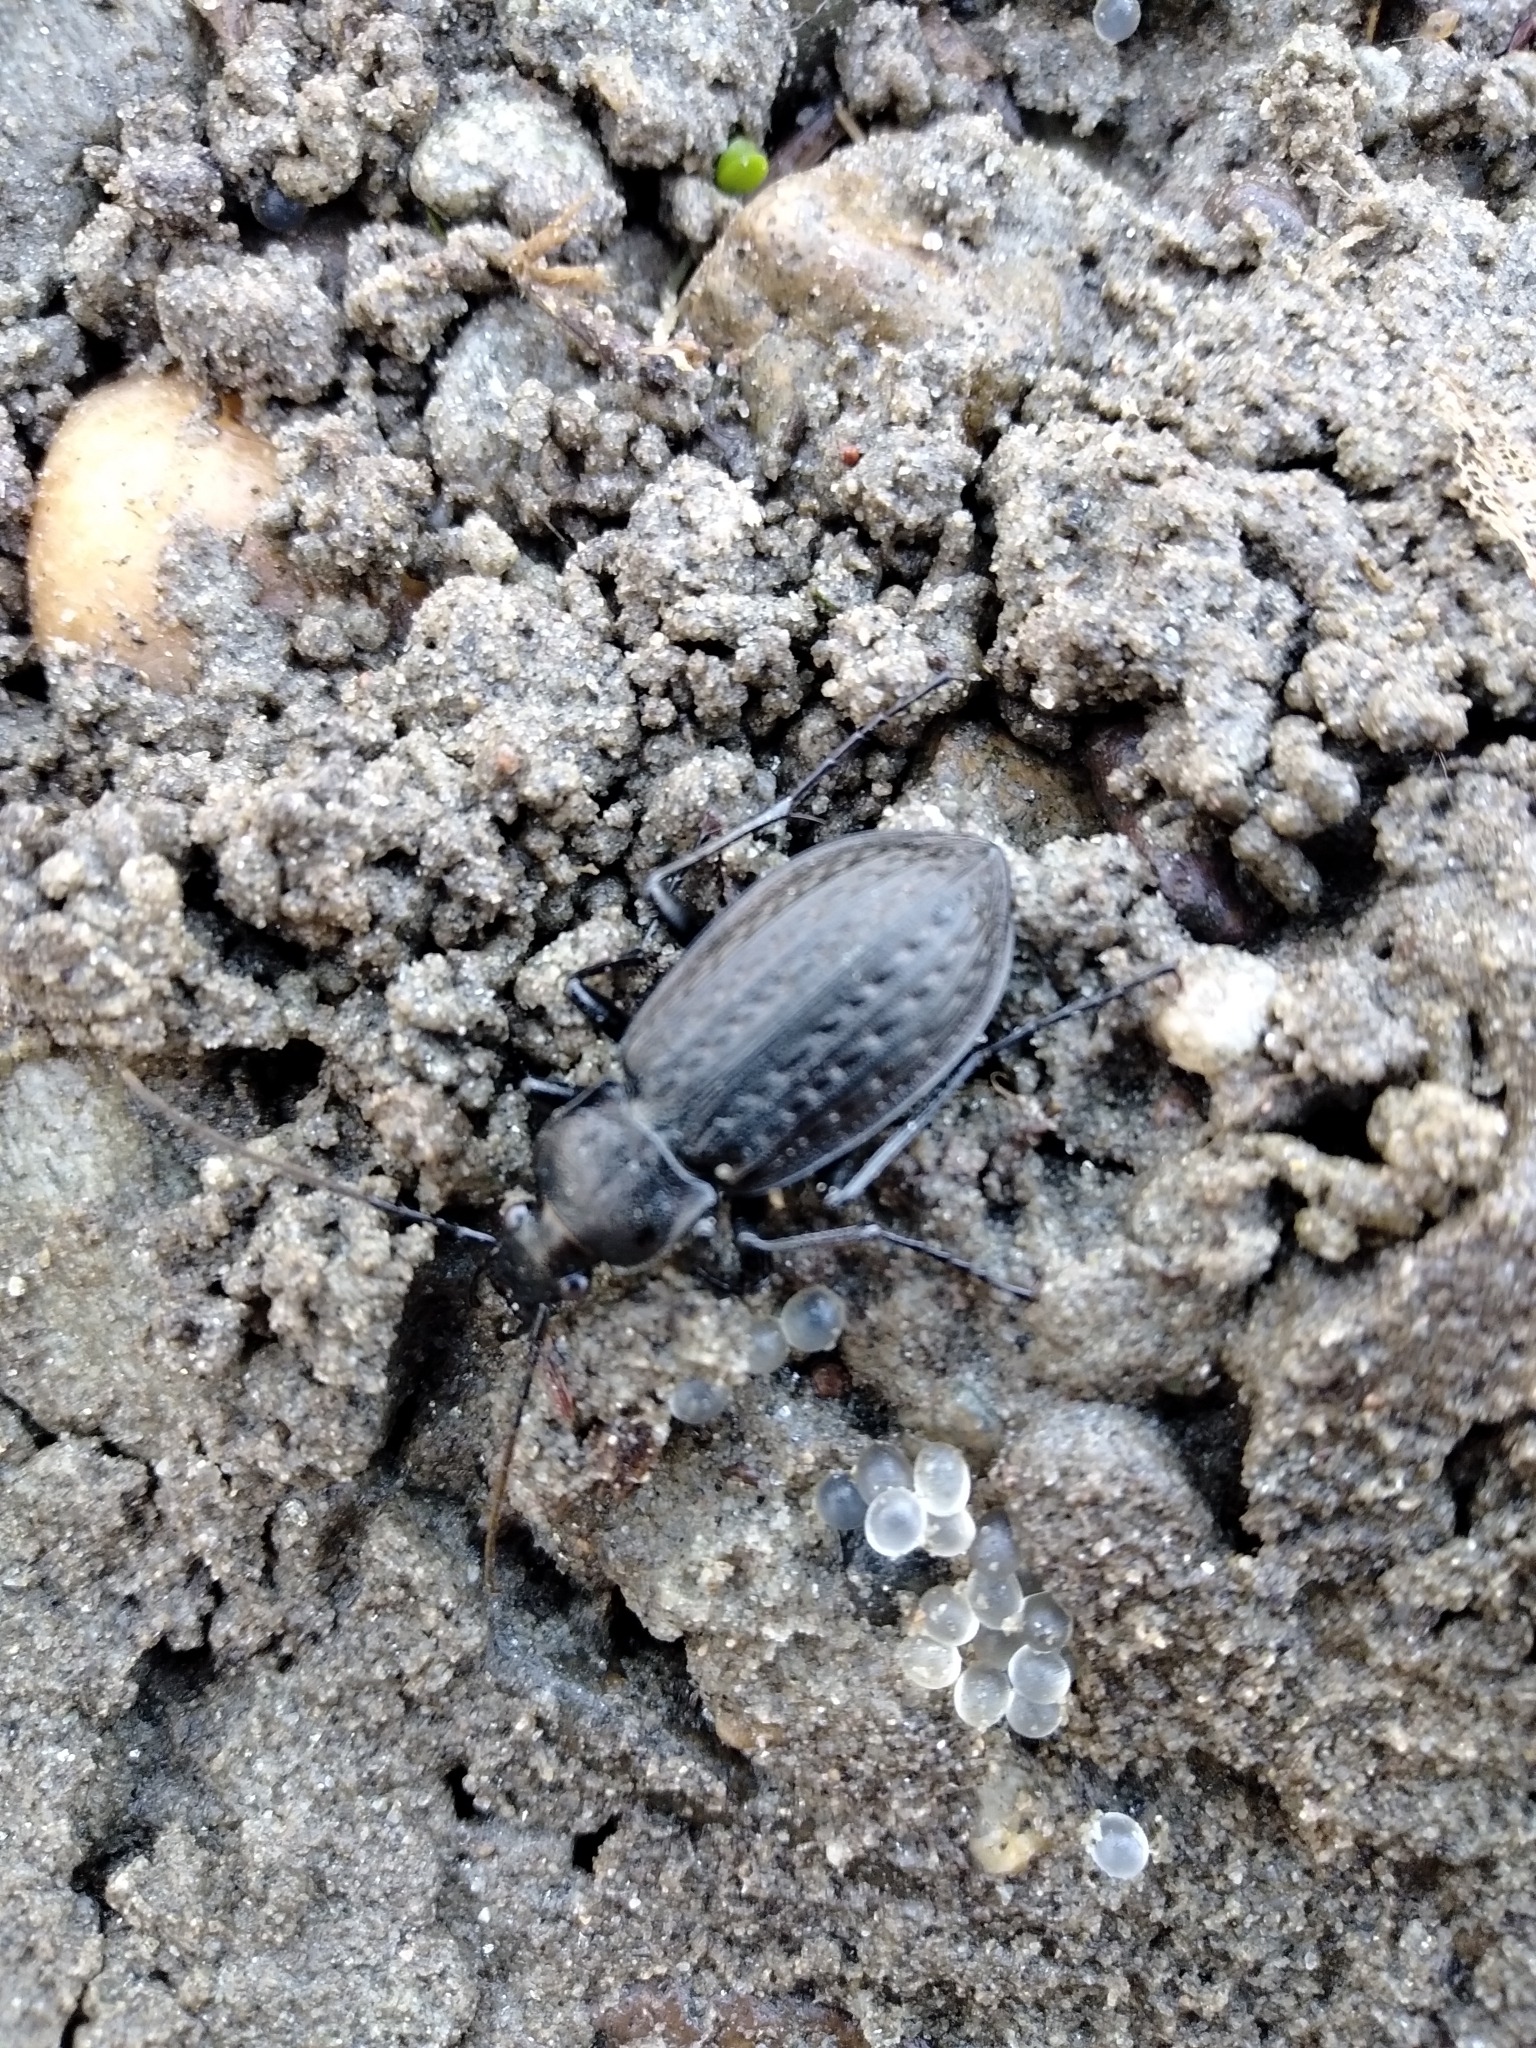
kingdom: Animalia
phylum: Arthropoda
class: Insecta
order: Coleoptera
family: Carabidae
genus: Carabus
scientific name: Carabus granulatus
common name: Granulate ground beetle
